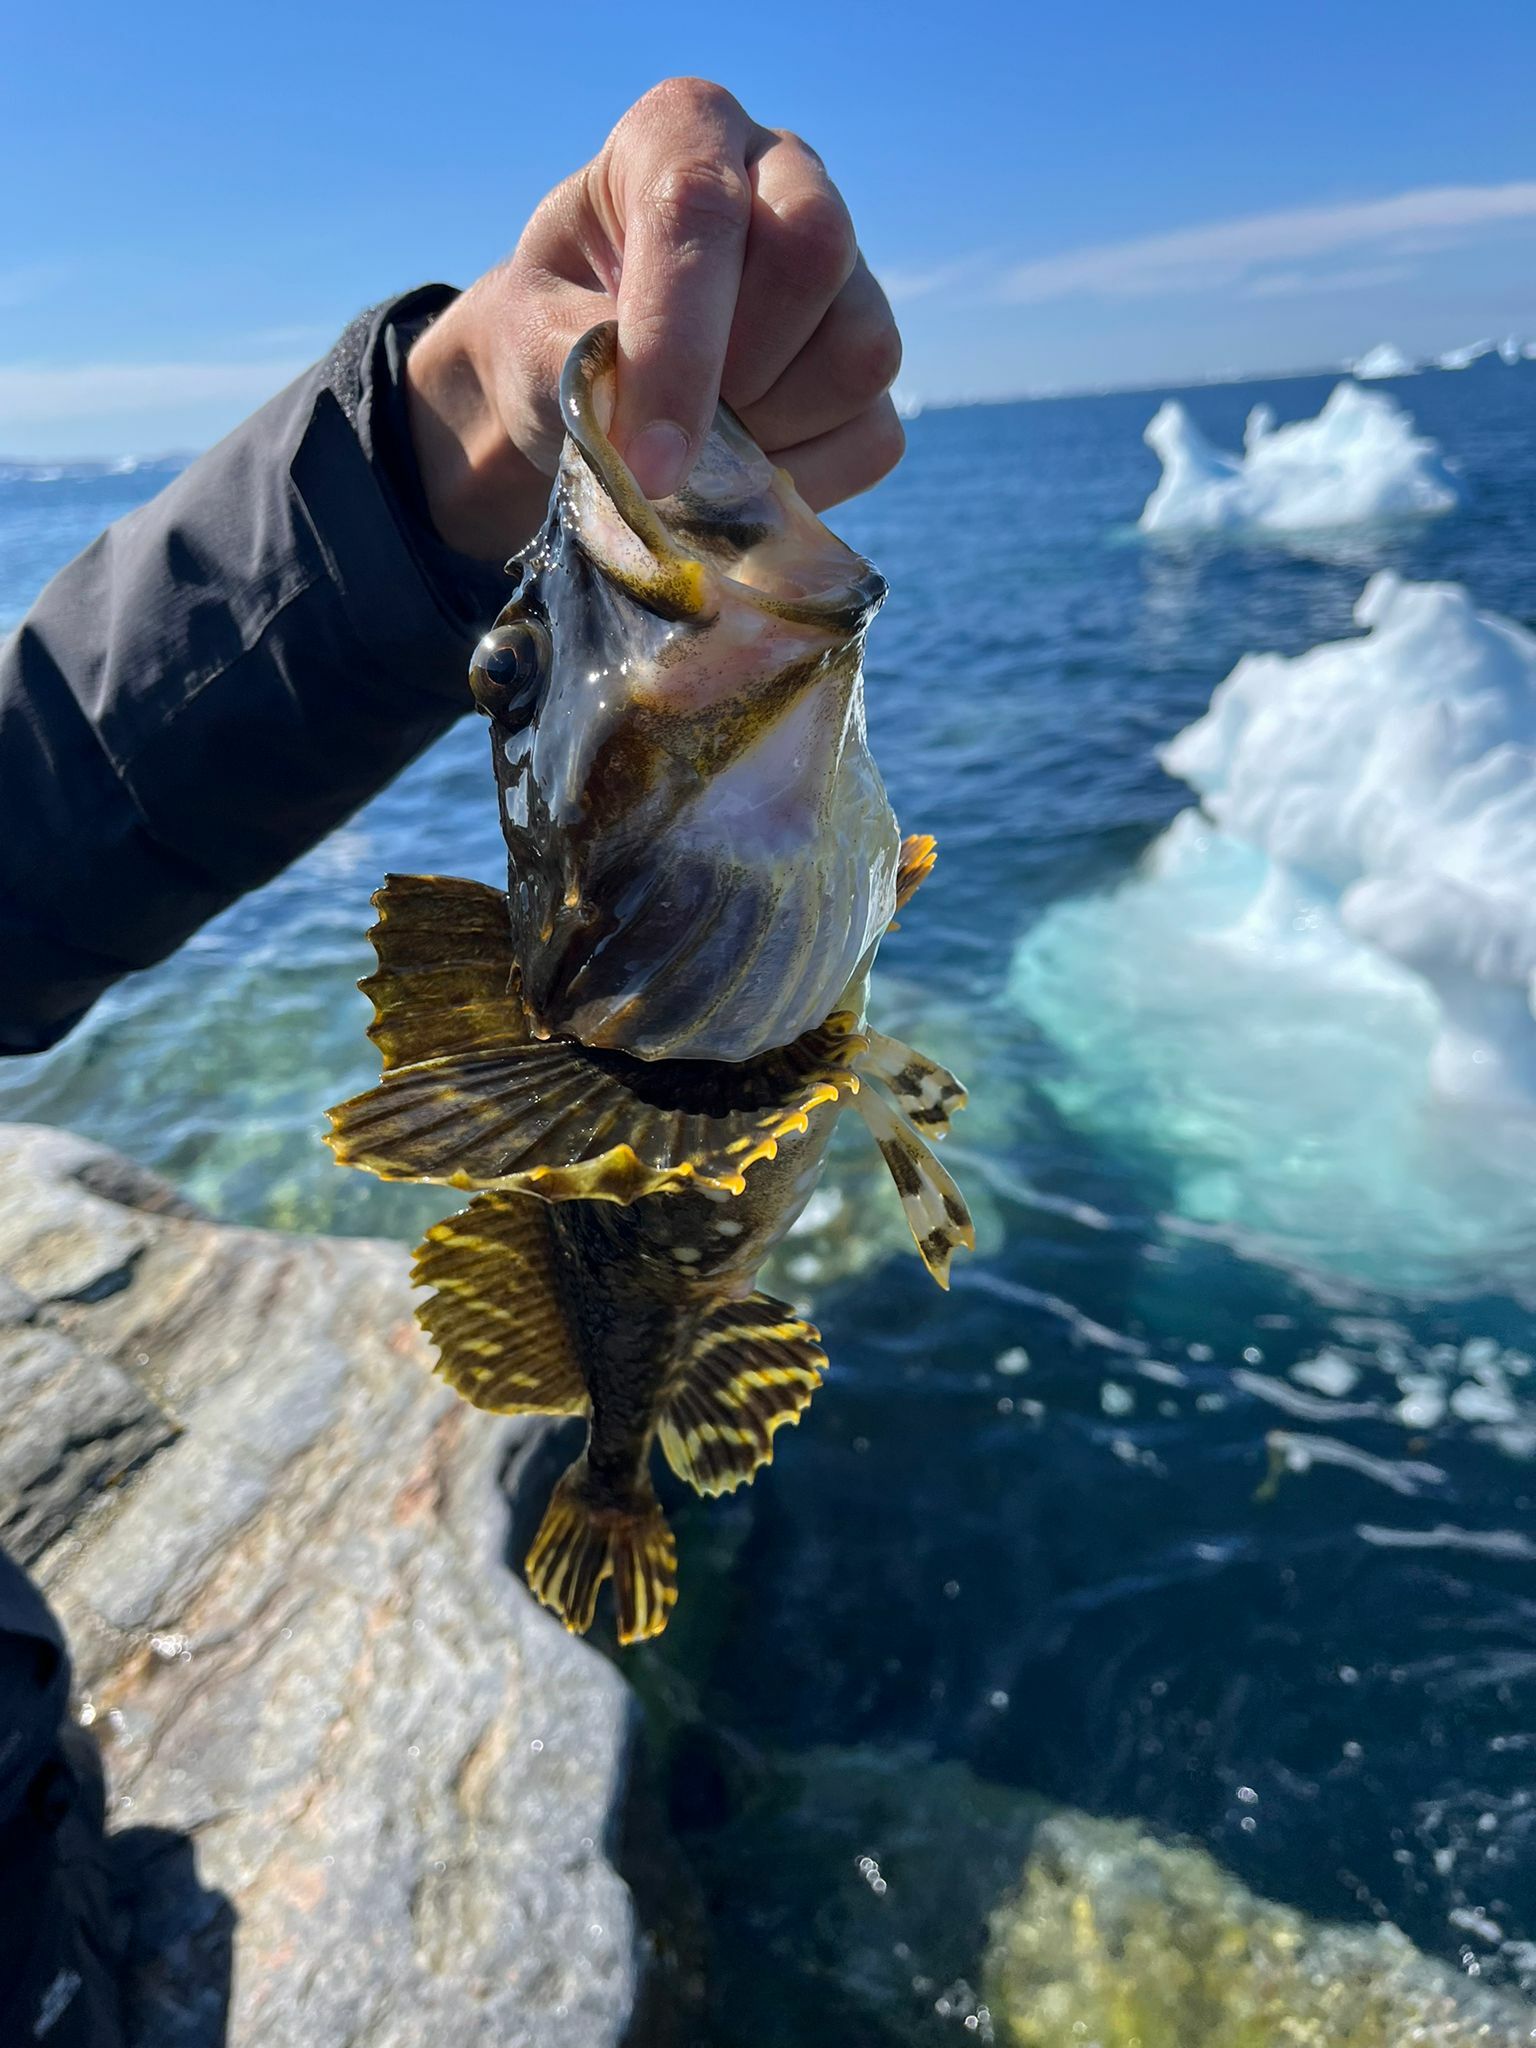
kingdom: Animalia
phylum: Chordata
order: Scorpaeniformes
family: Cottidae
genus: Myoxocephalus
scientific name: Myoxocephalus scorpius
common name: Shorthorn sculpin
